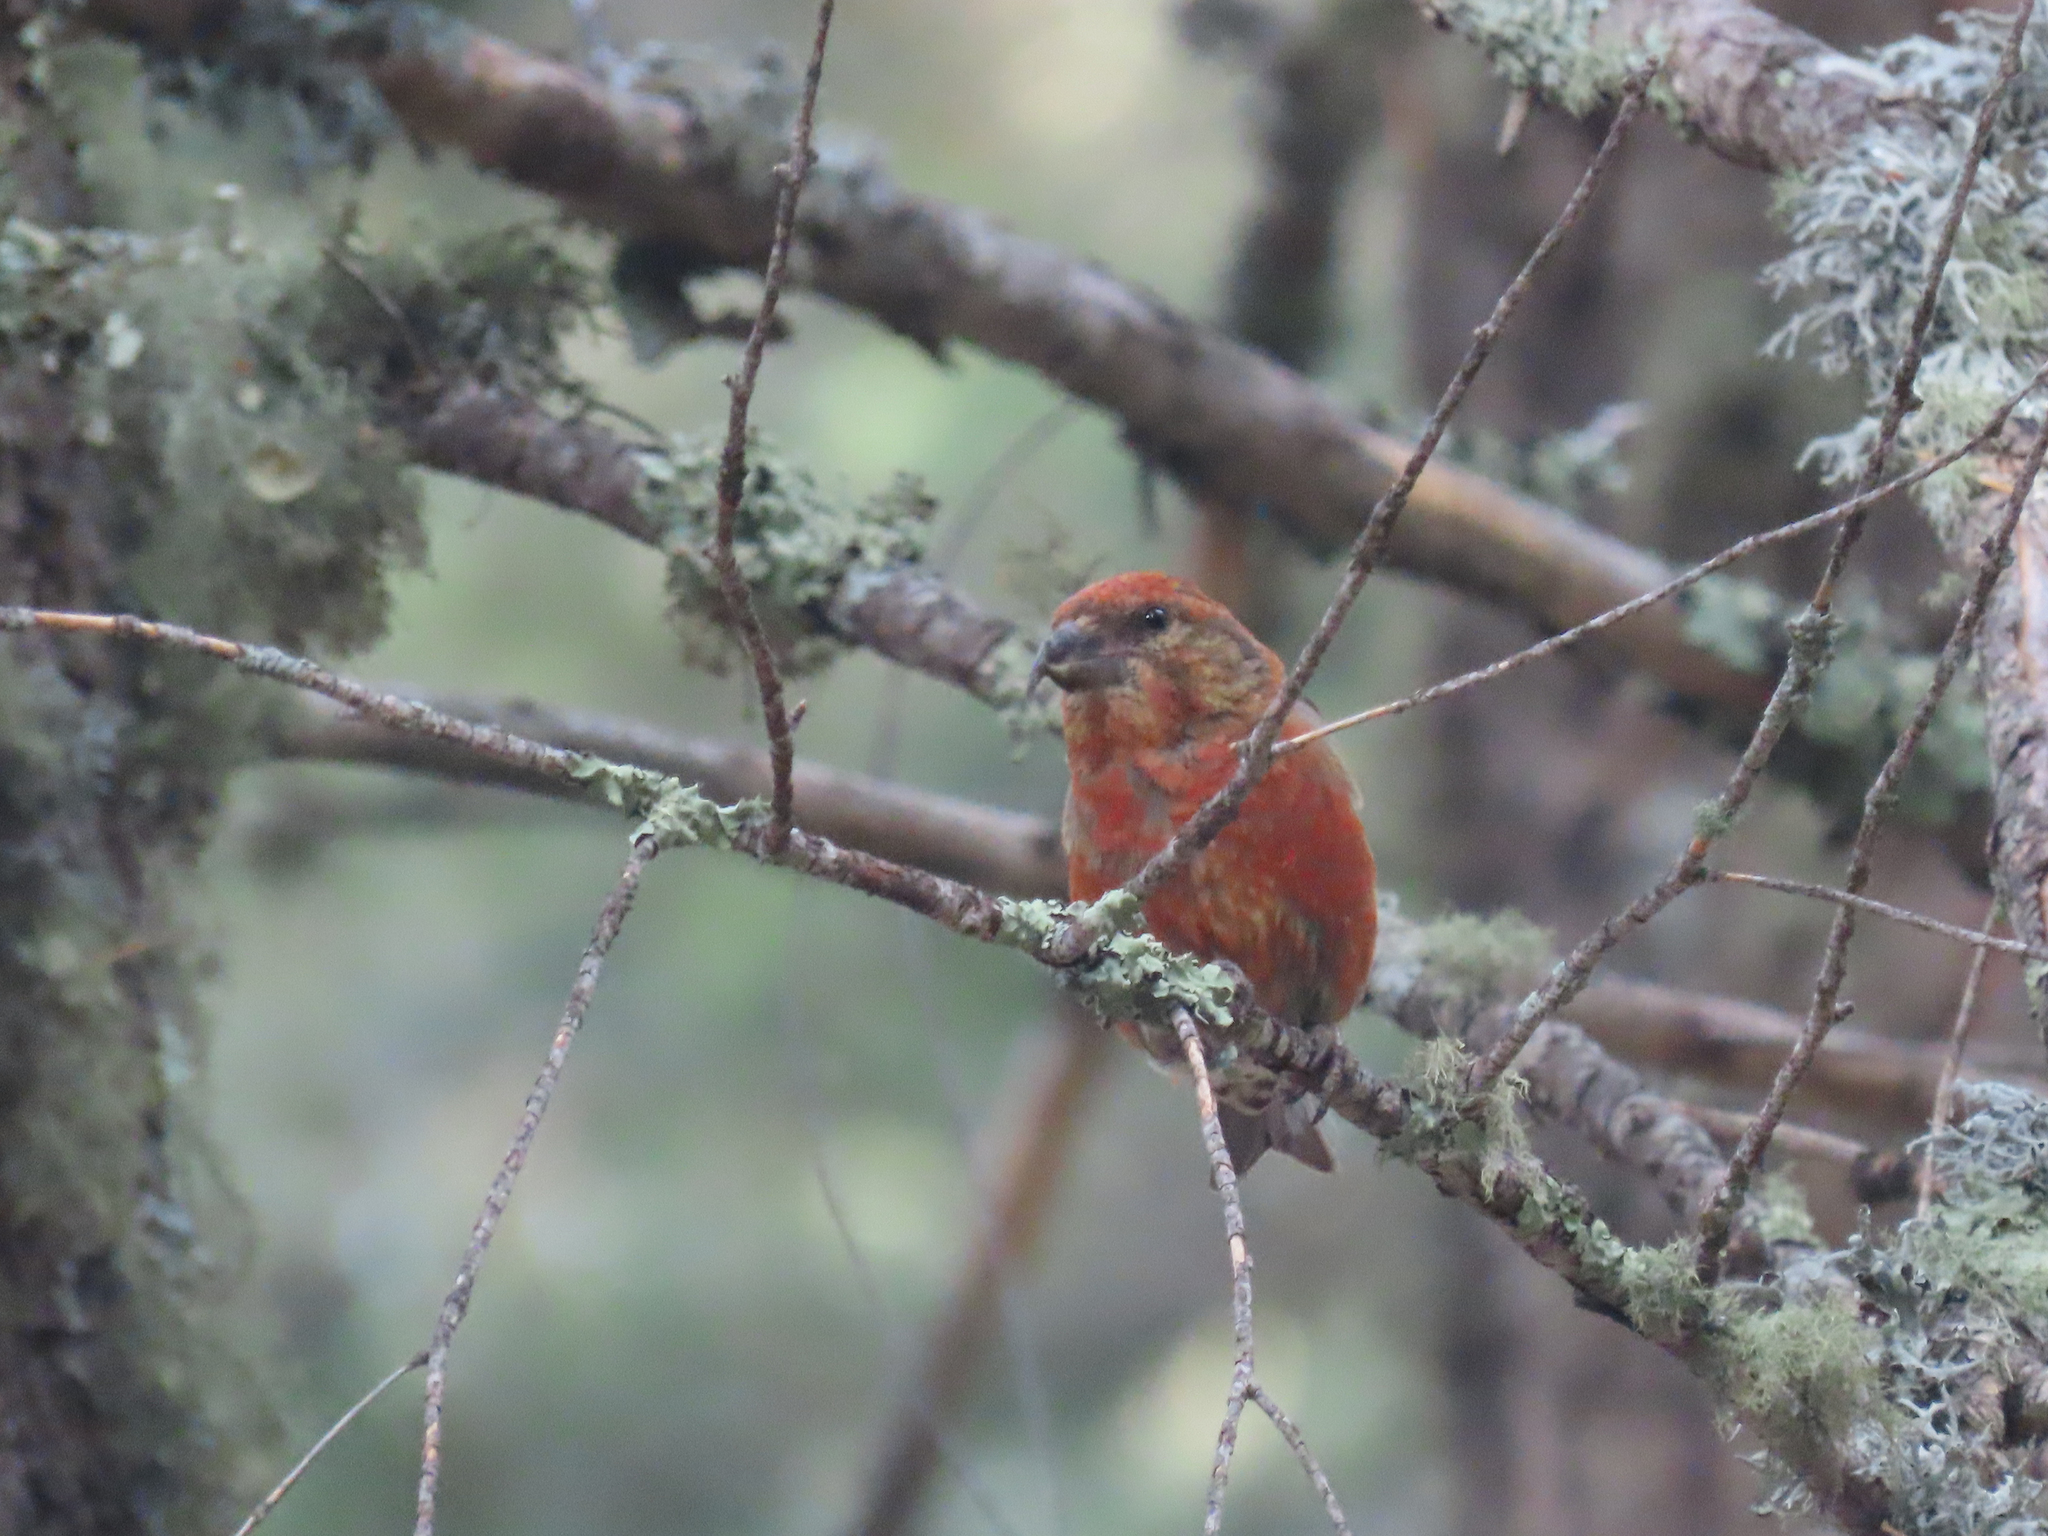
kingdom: Animalia
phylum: Chordata
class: Aves
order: Passeriformes
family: Fringillidae
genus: Loxia
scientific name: Loxia curvirostra
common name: Red crossbill
